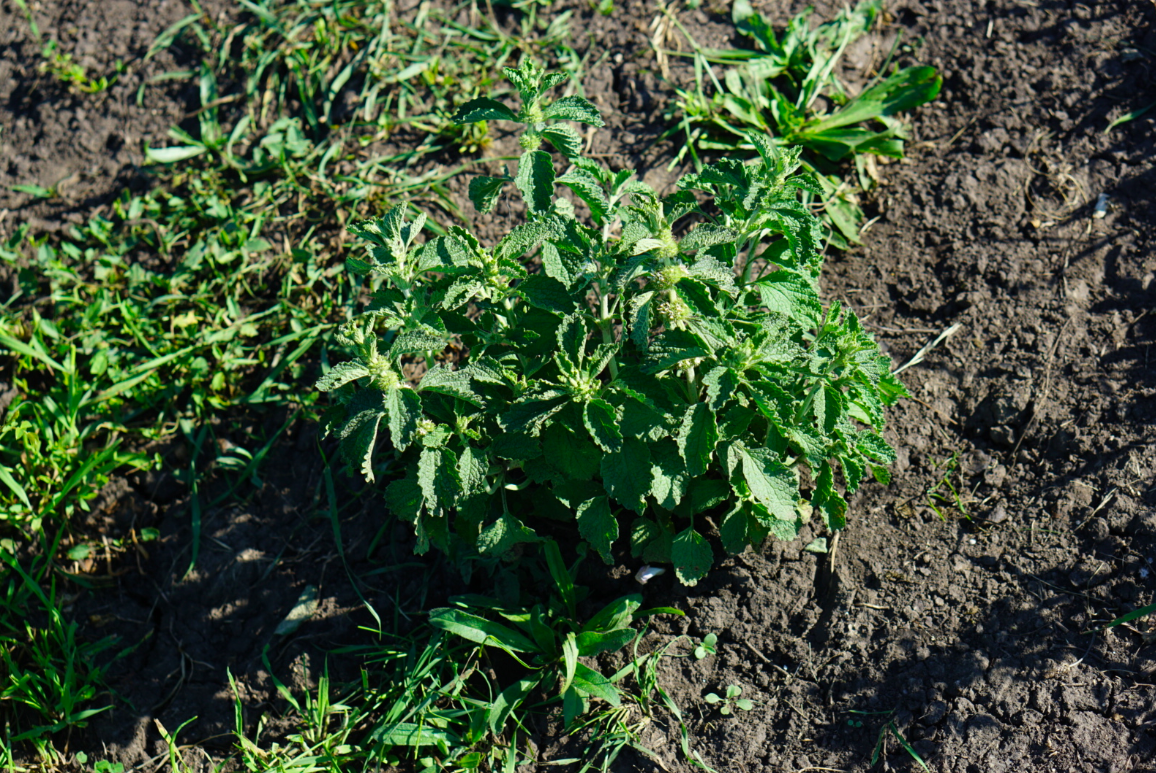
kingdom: Plantae
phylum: Tracheophyta
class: Magnoliopsida
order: Lamiales
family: Lamiaceae
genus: Marrubium
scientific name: Marrubium vulgare
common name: Horehound
